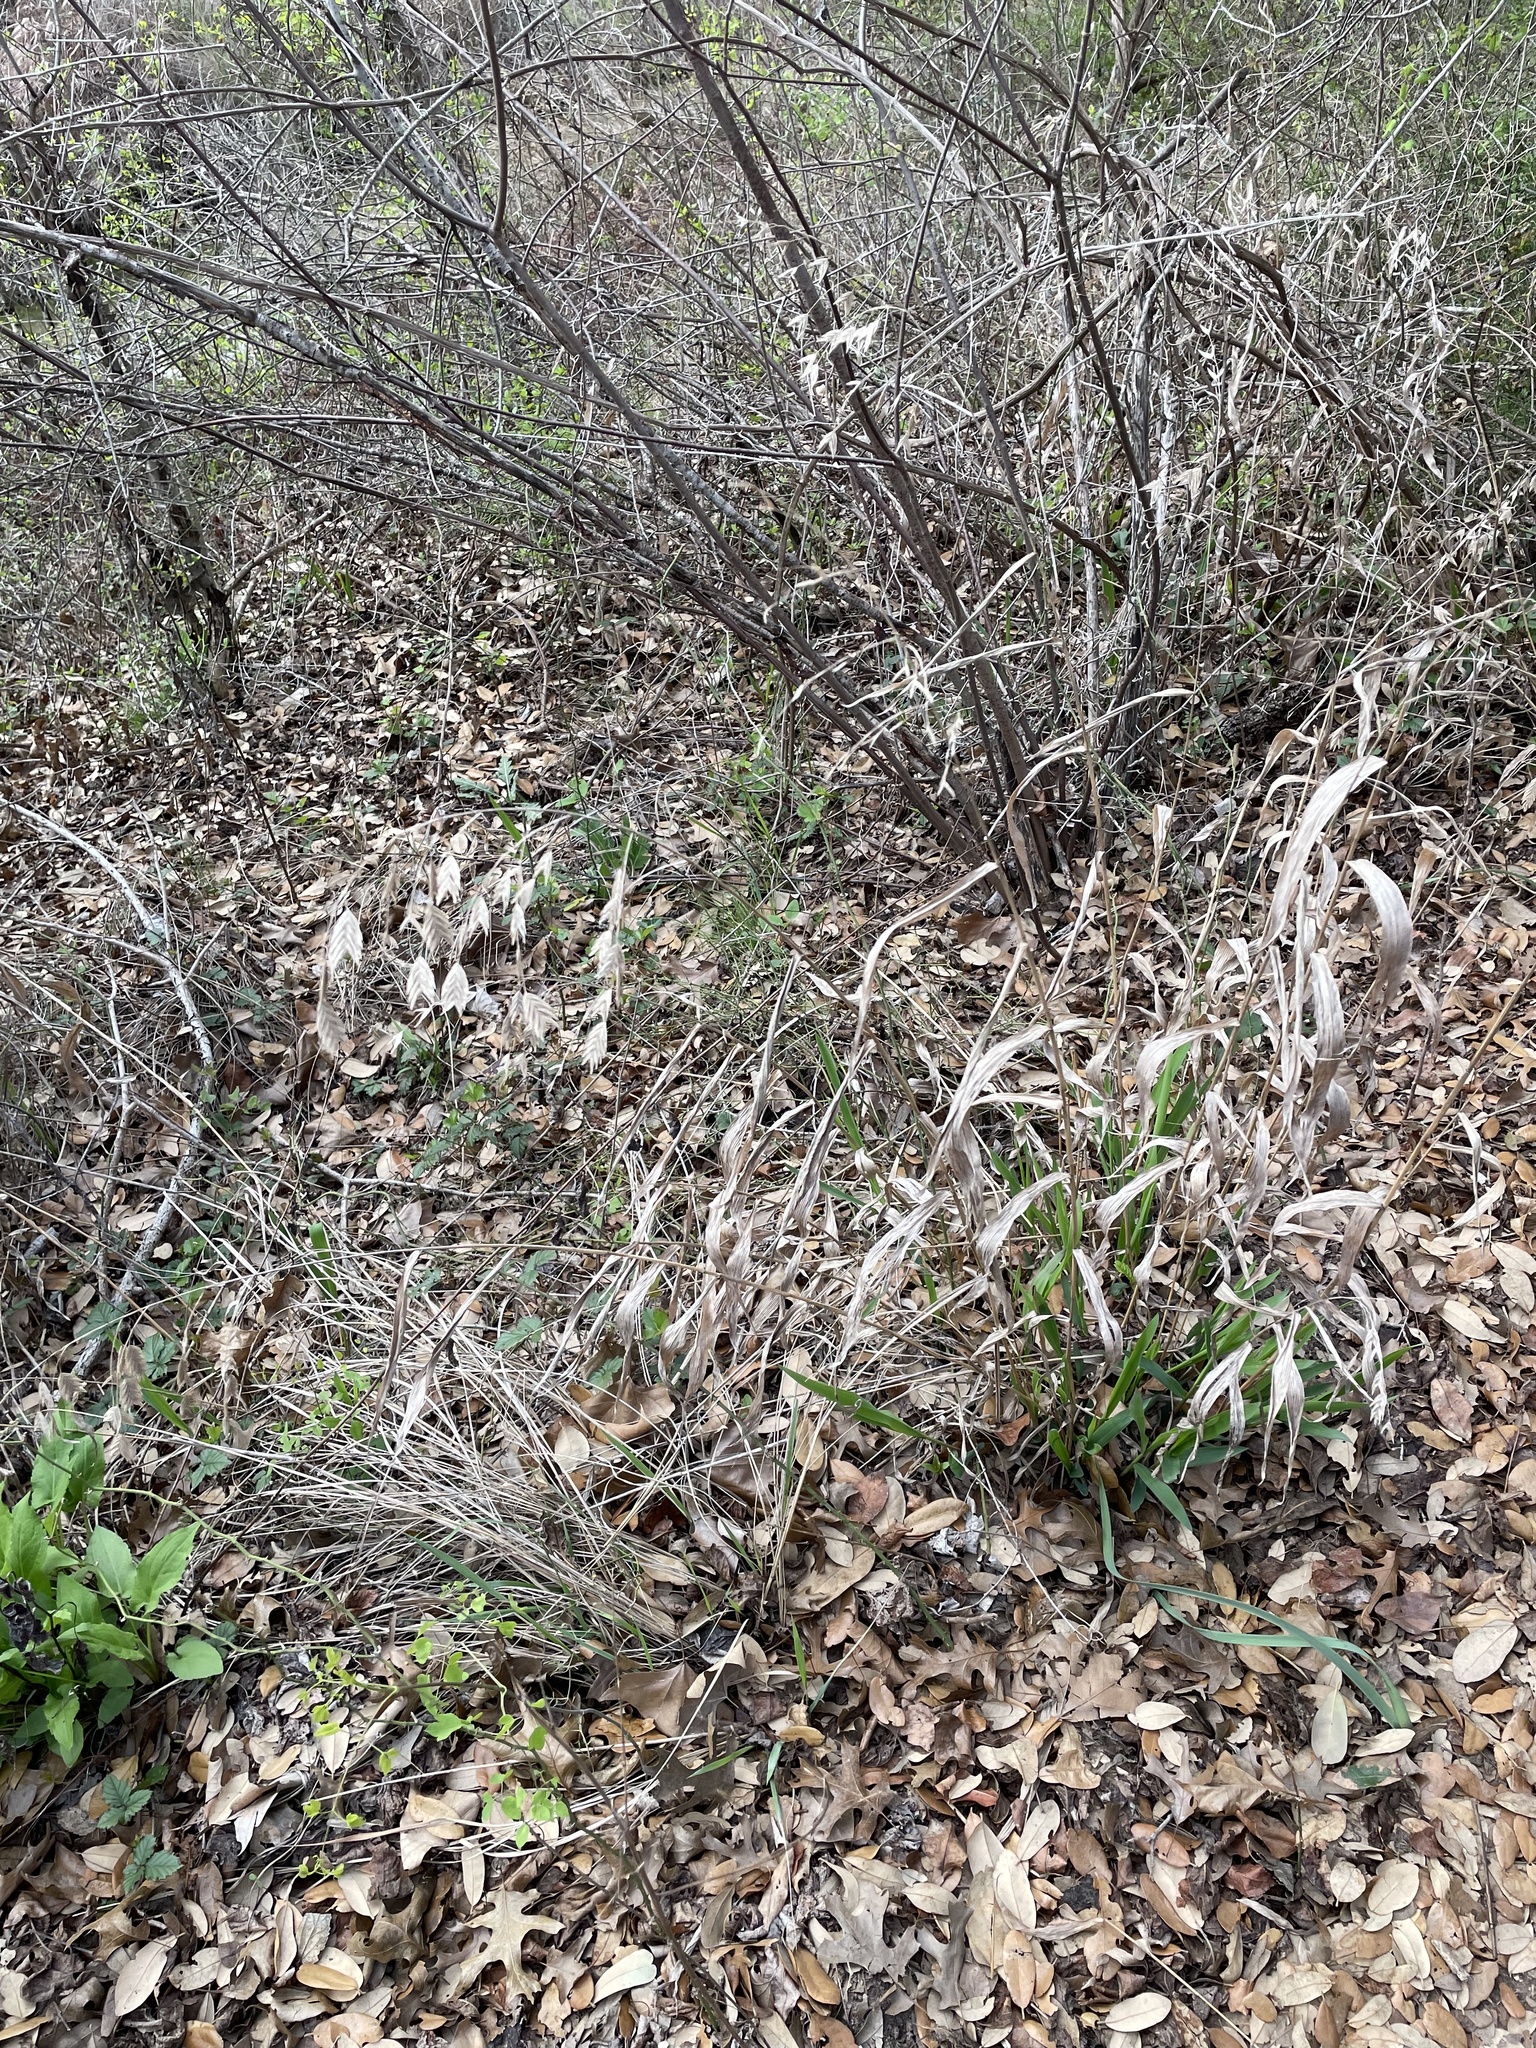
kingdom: Plantae
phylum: Tracheophyta
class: Liliopsida
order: Poales
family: Poaceae
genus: Chasmanthium
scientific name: Chasmanthium latifolium
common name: Broad-leaved chasmanthium
